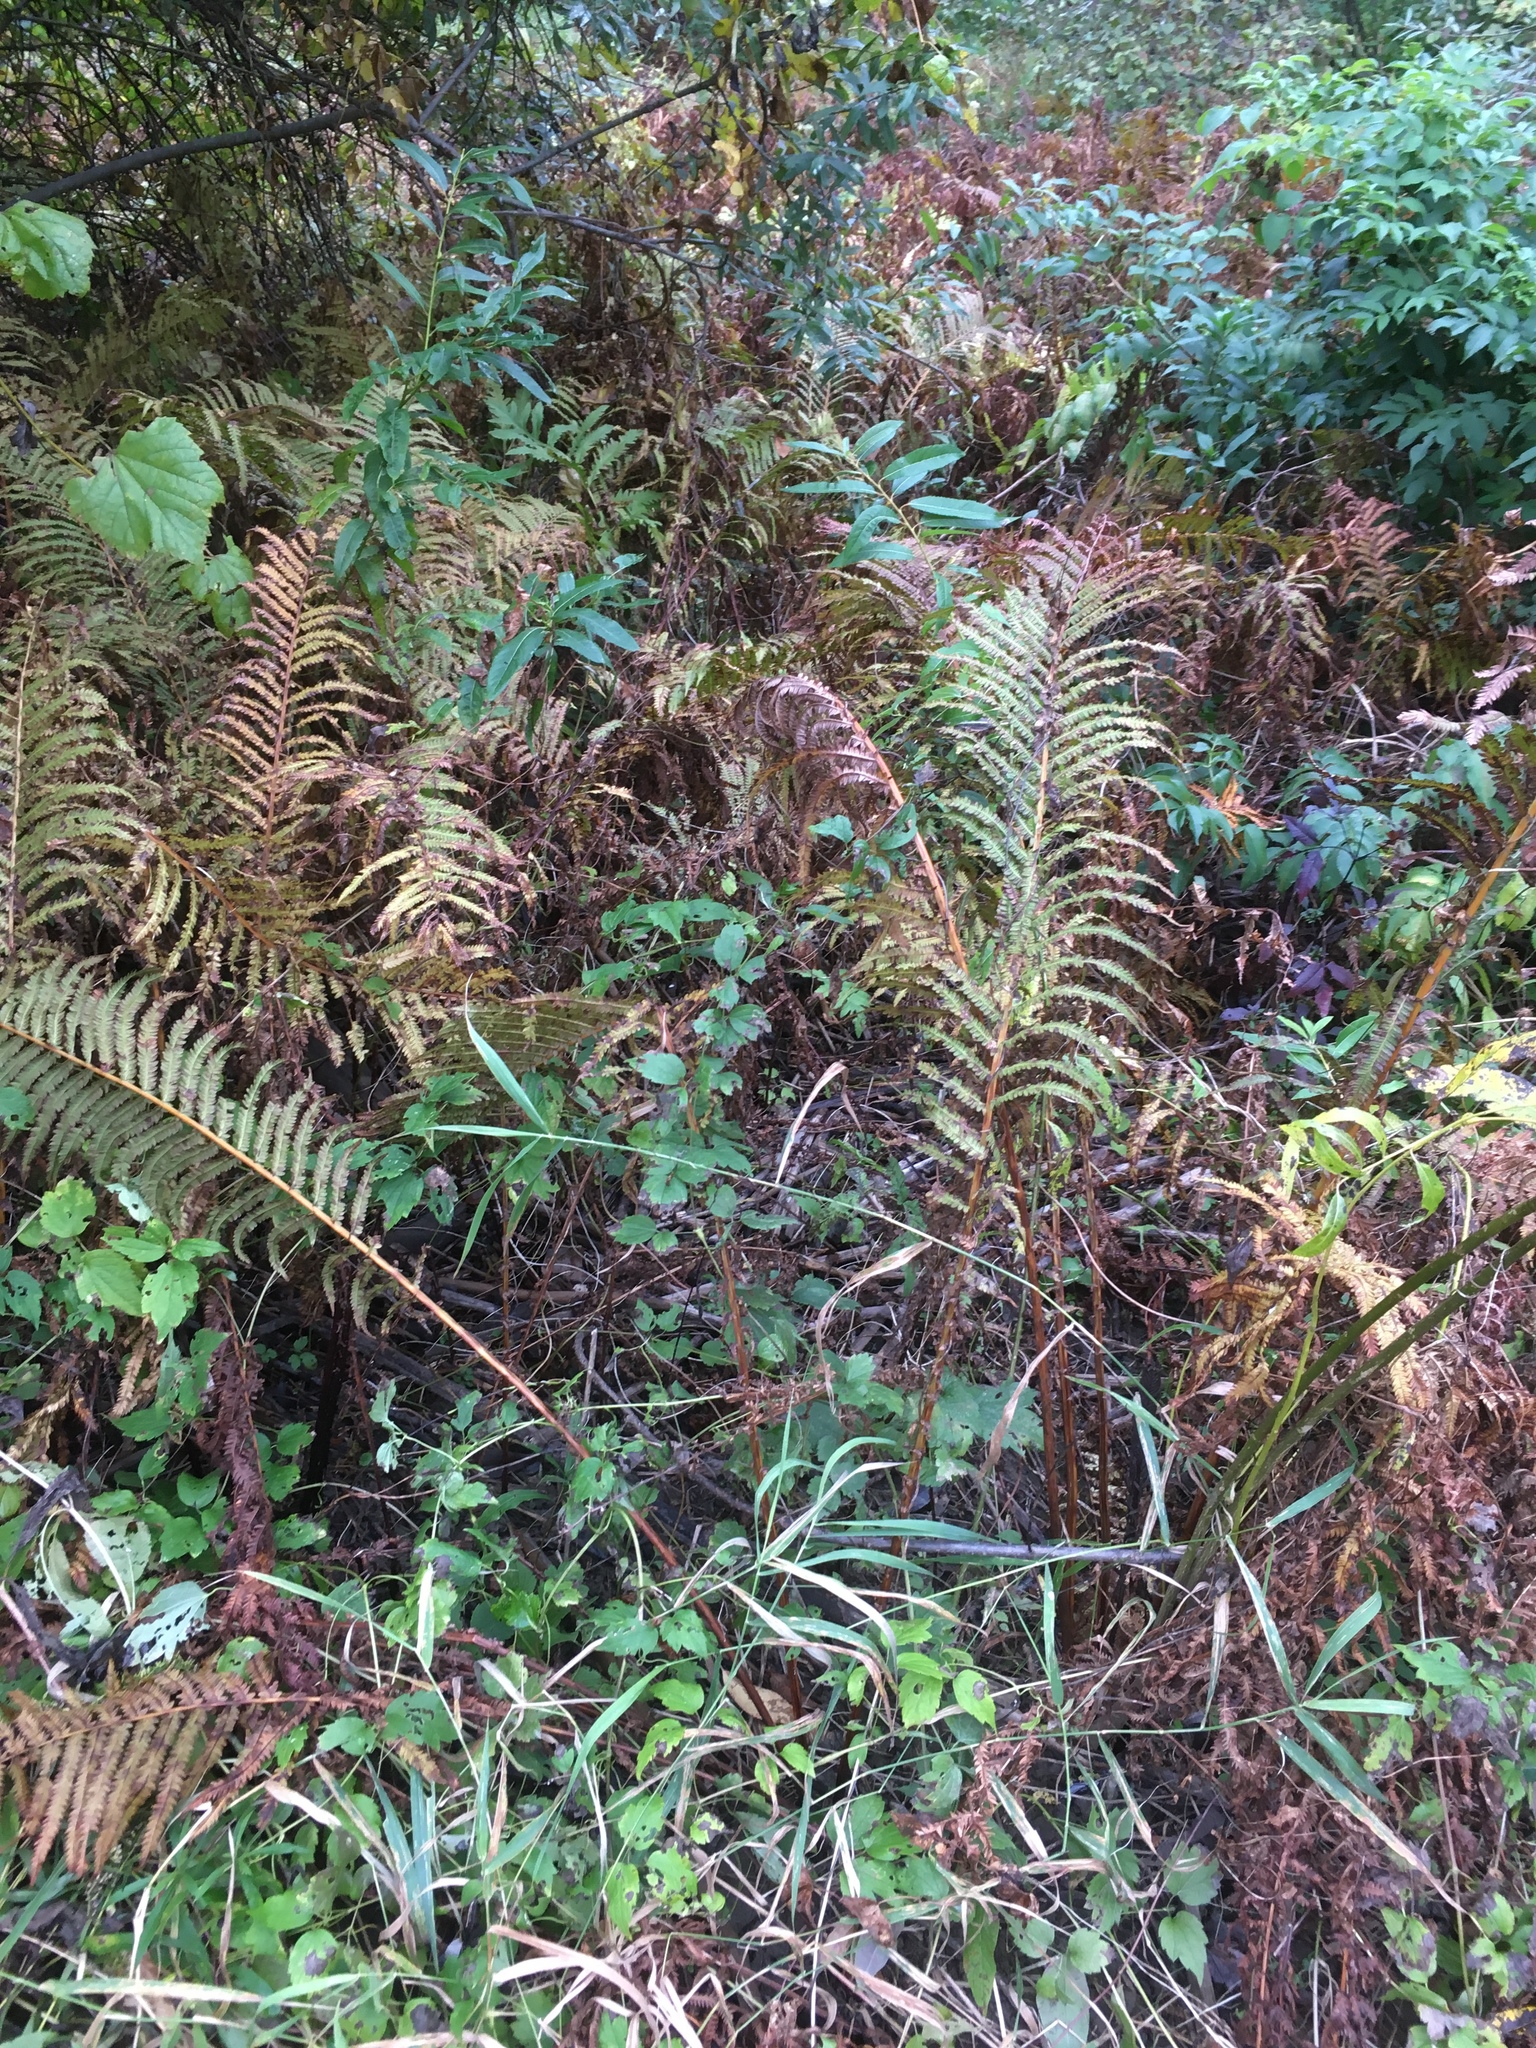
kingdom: Plantae
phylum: Tracheophyta
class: Polypodiopsida
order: Polypodiales
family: Onocleaceae
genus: Matteuccia
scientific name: Matteuccia struthiopteris
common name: Ostrich fern
